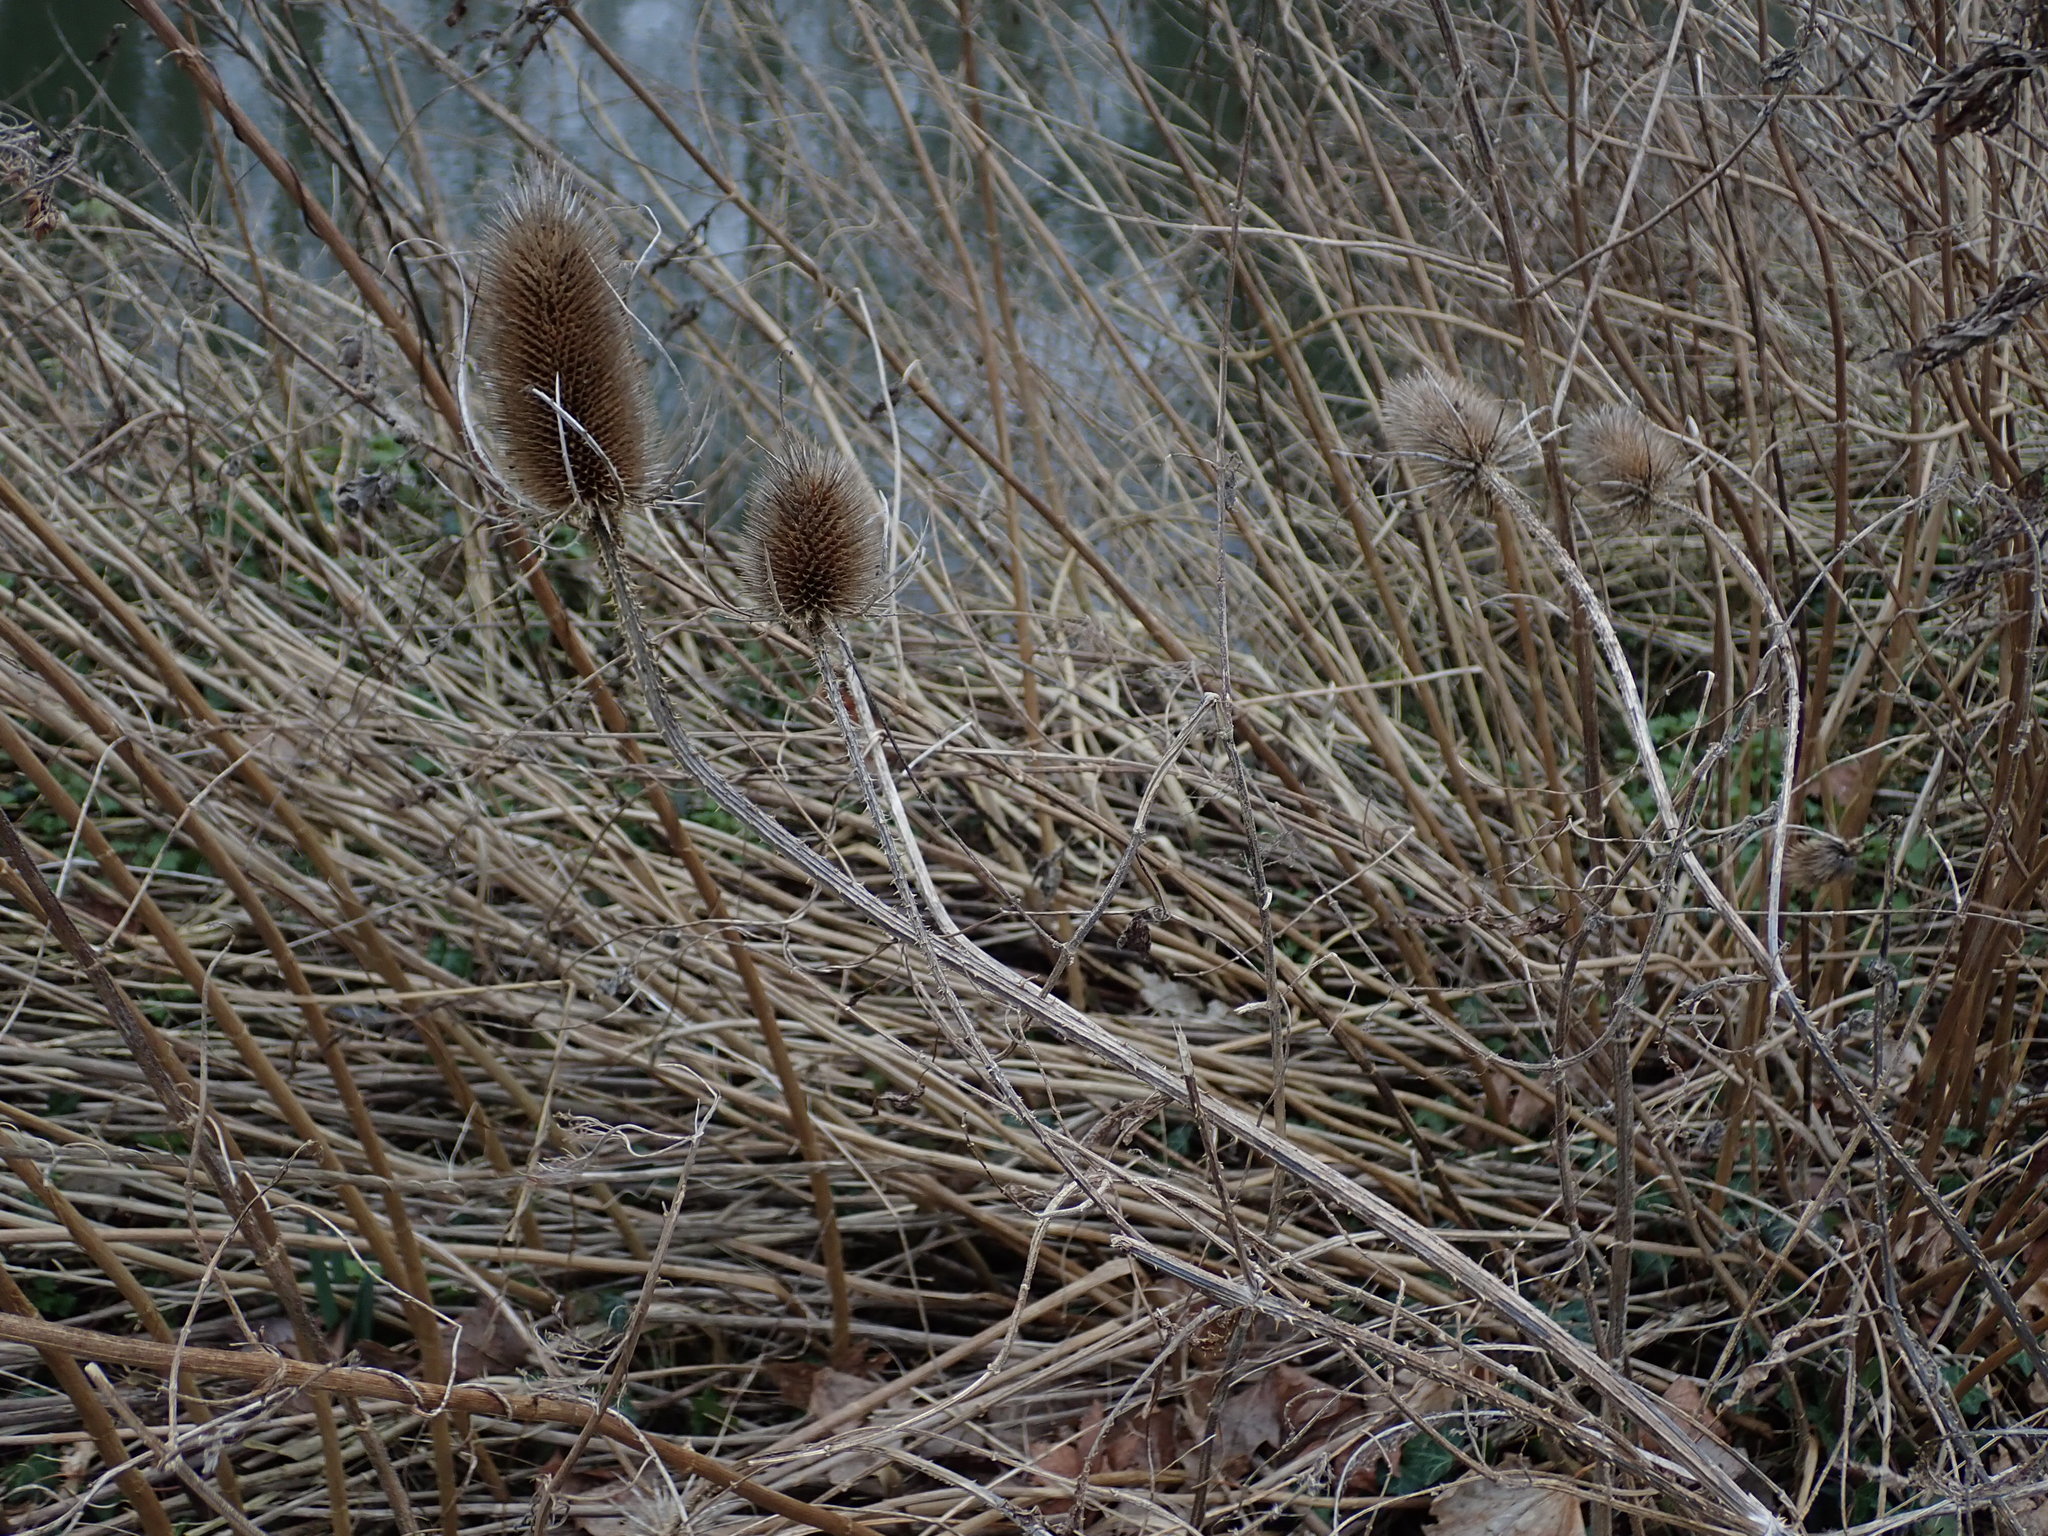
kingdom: Plantae
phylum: Tracheophyta
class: Magnoliopsida
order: Dipsacales
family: Caprifoliaceae
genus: Dipsacus
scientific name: Dipsacus fullonum
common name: Teasel
